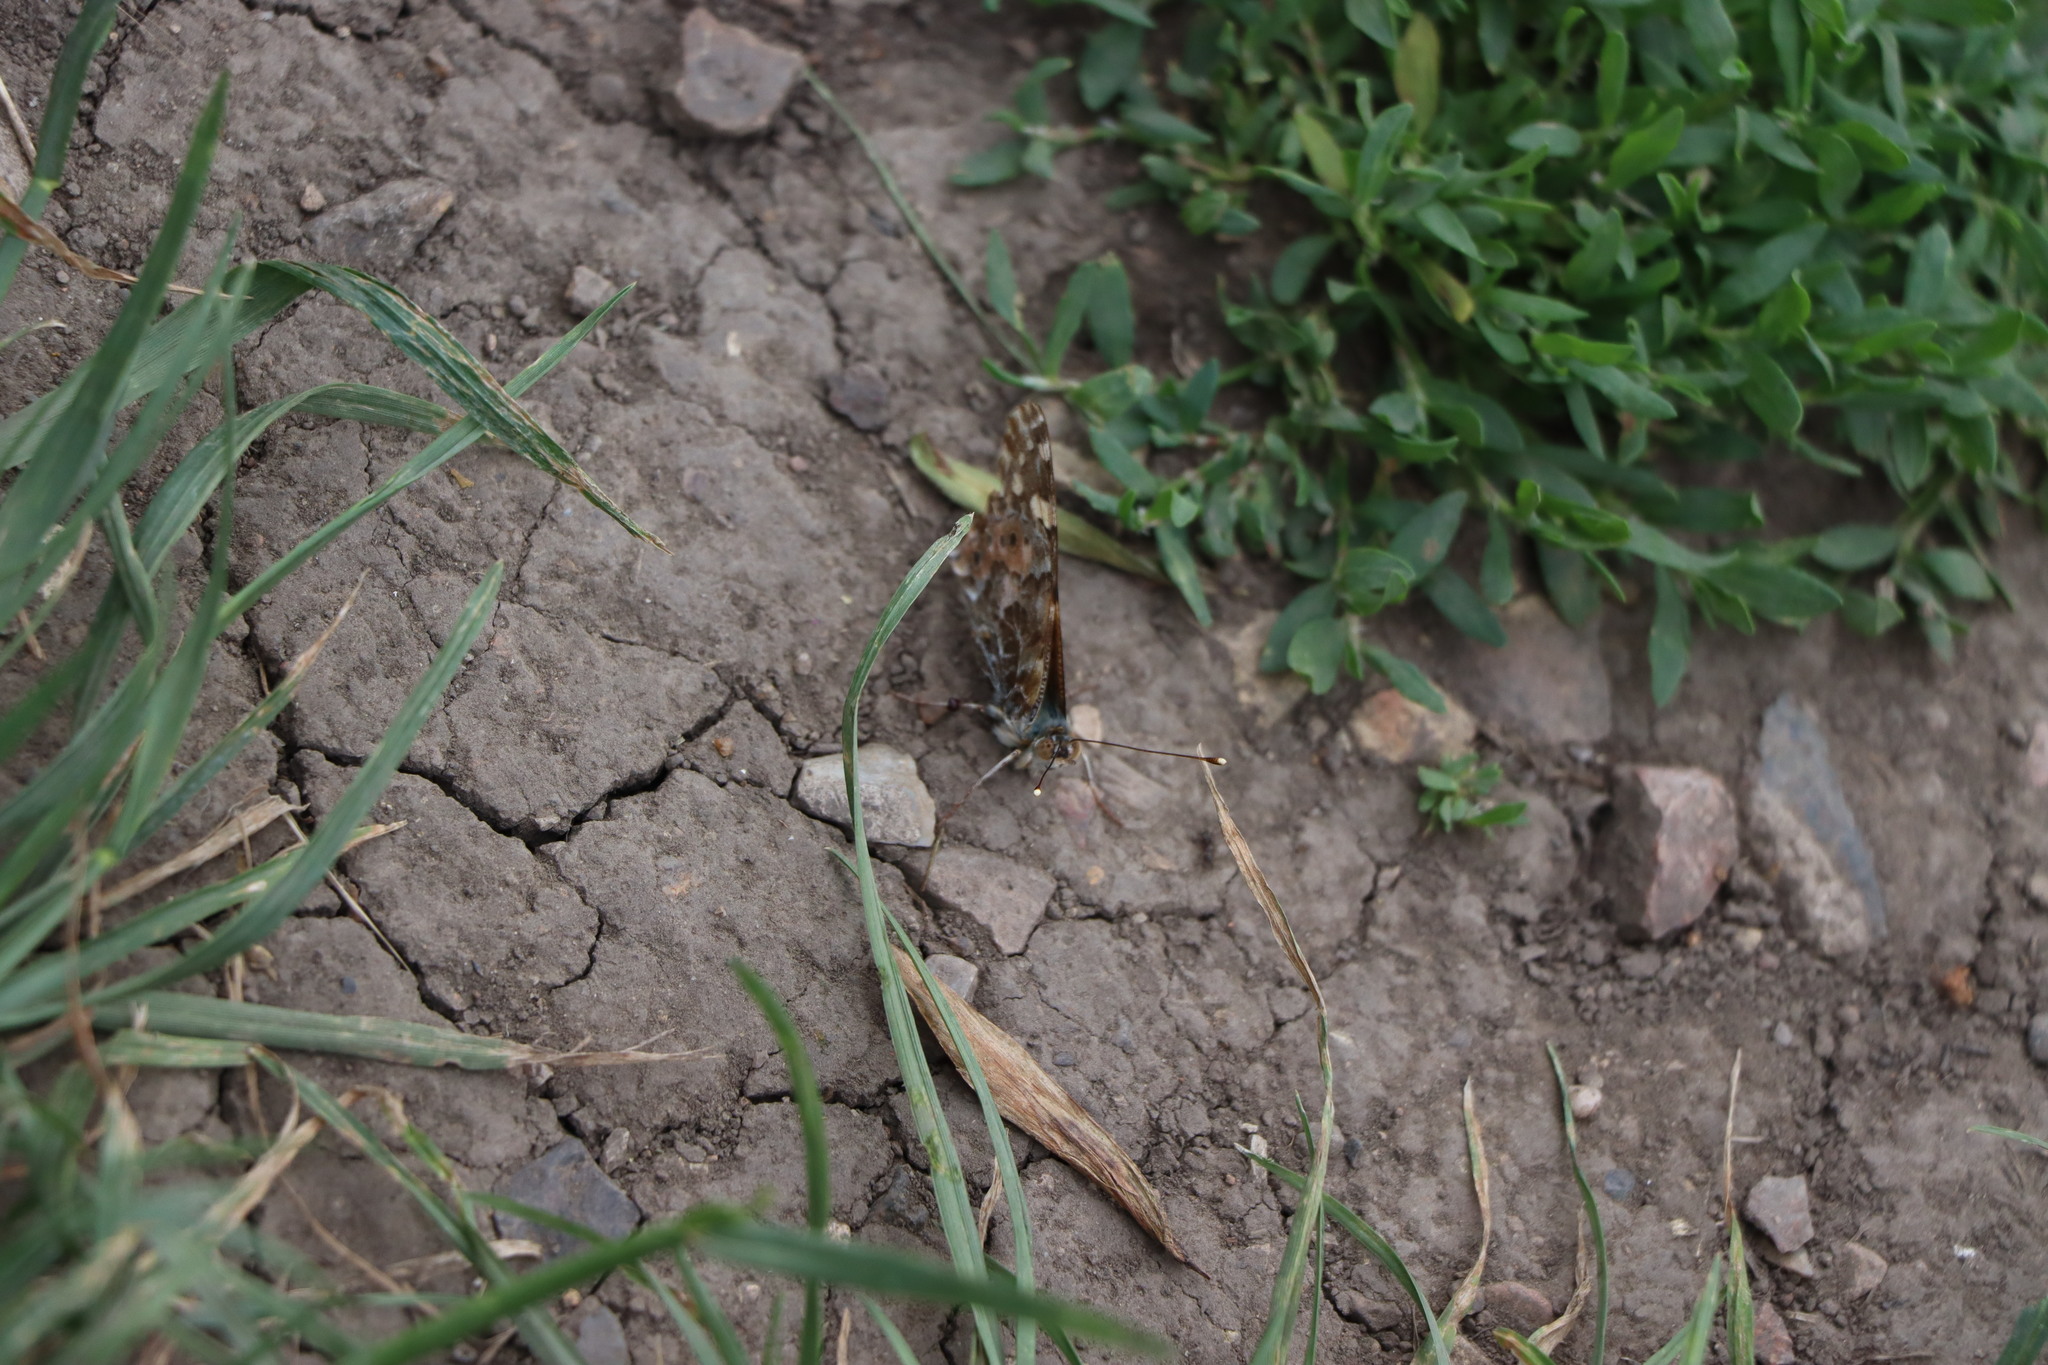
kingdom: Animalia
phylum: Arthropoda
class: Insecta
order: Lepidoptera
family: Nymphalidae
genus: Vanessa
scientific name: Vanessa cardui
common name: Painted lady
